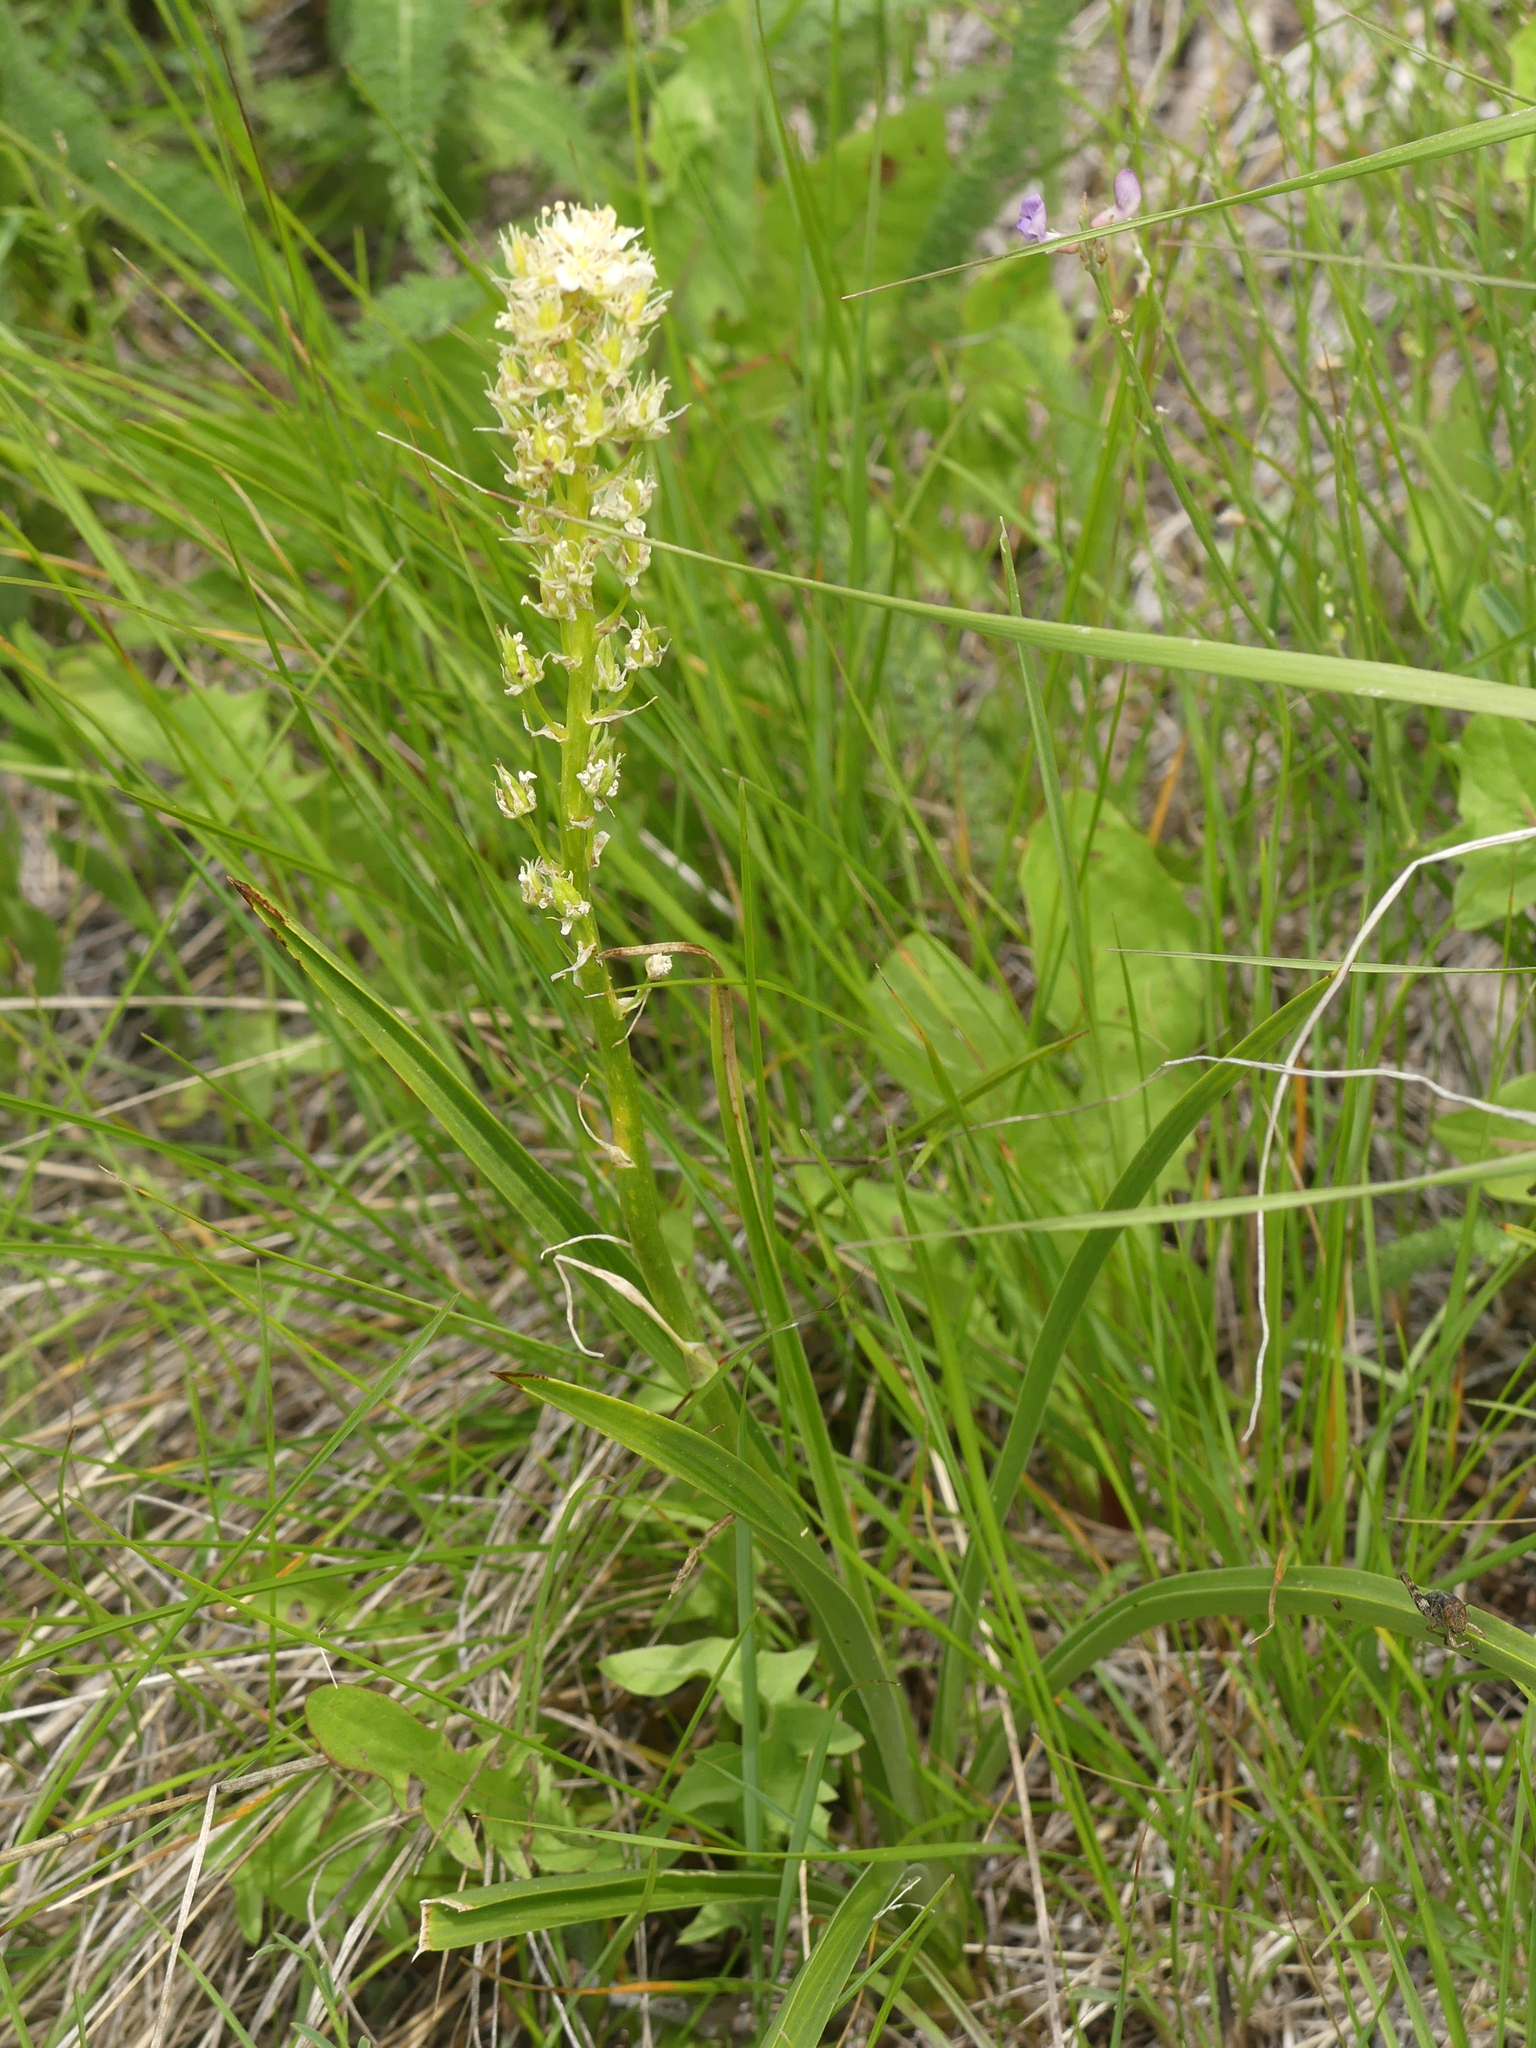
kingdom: Plantae
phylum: Tracheophyta
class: Liliopsida
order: Liliales
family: Melanthiaceae
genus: Toxicoscordion
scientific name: Toxicoscordion venenosum
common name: Meadow death camas
